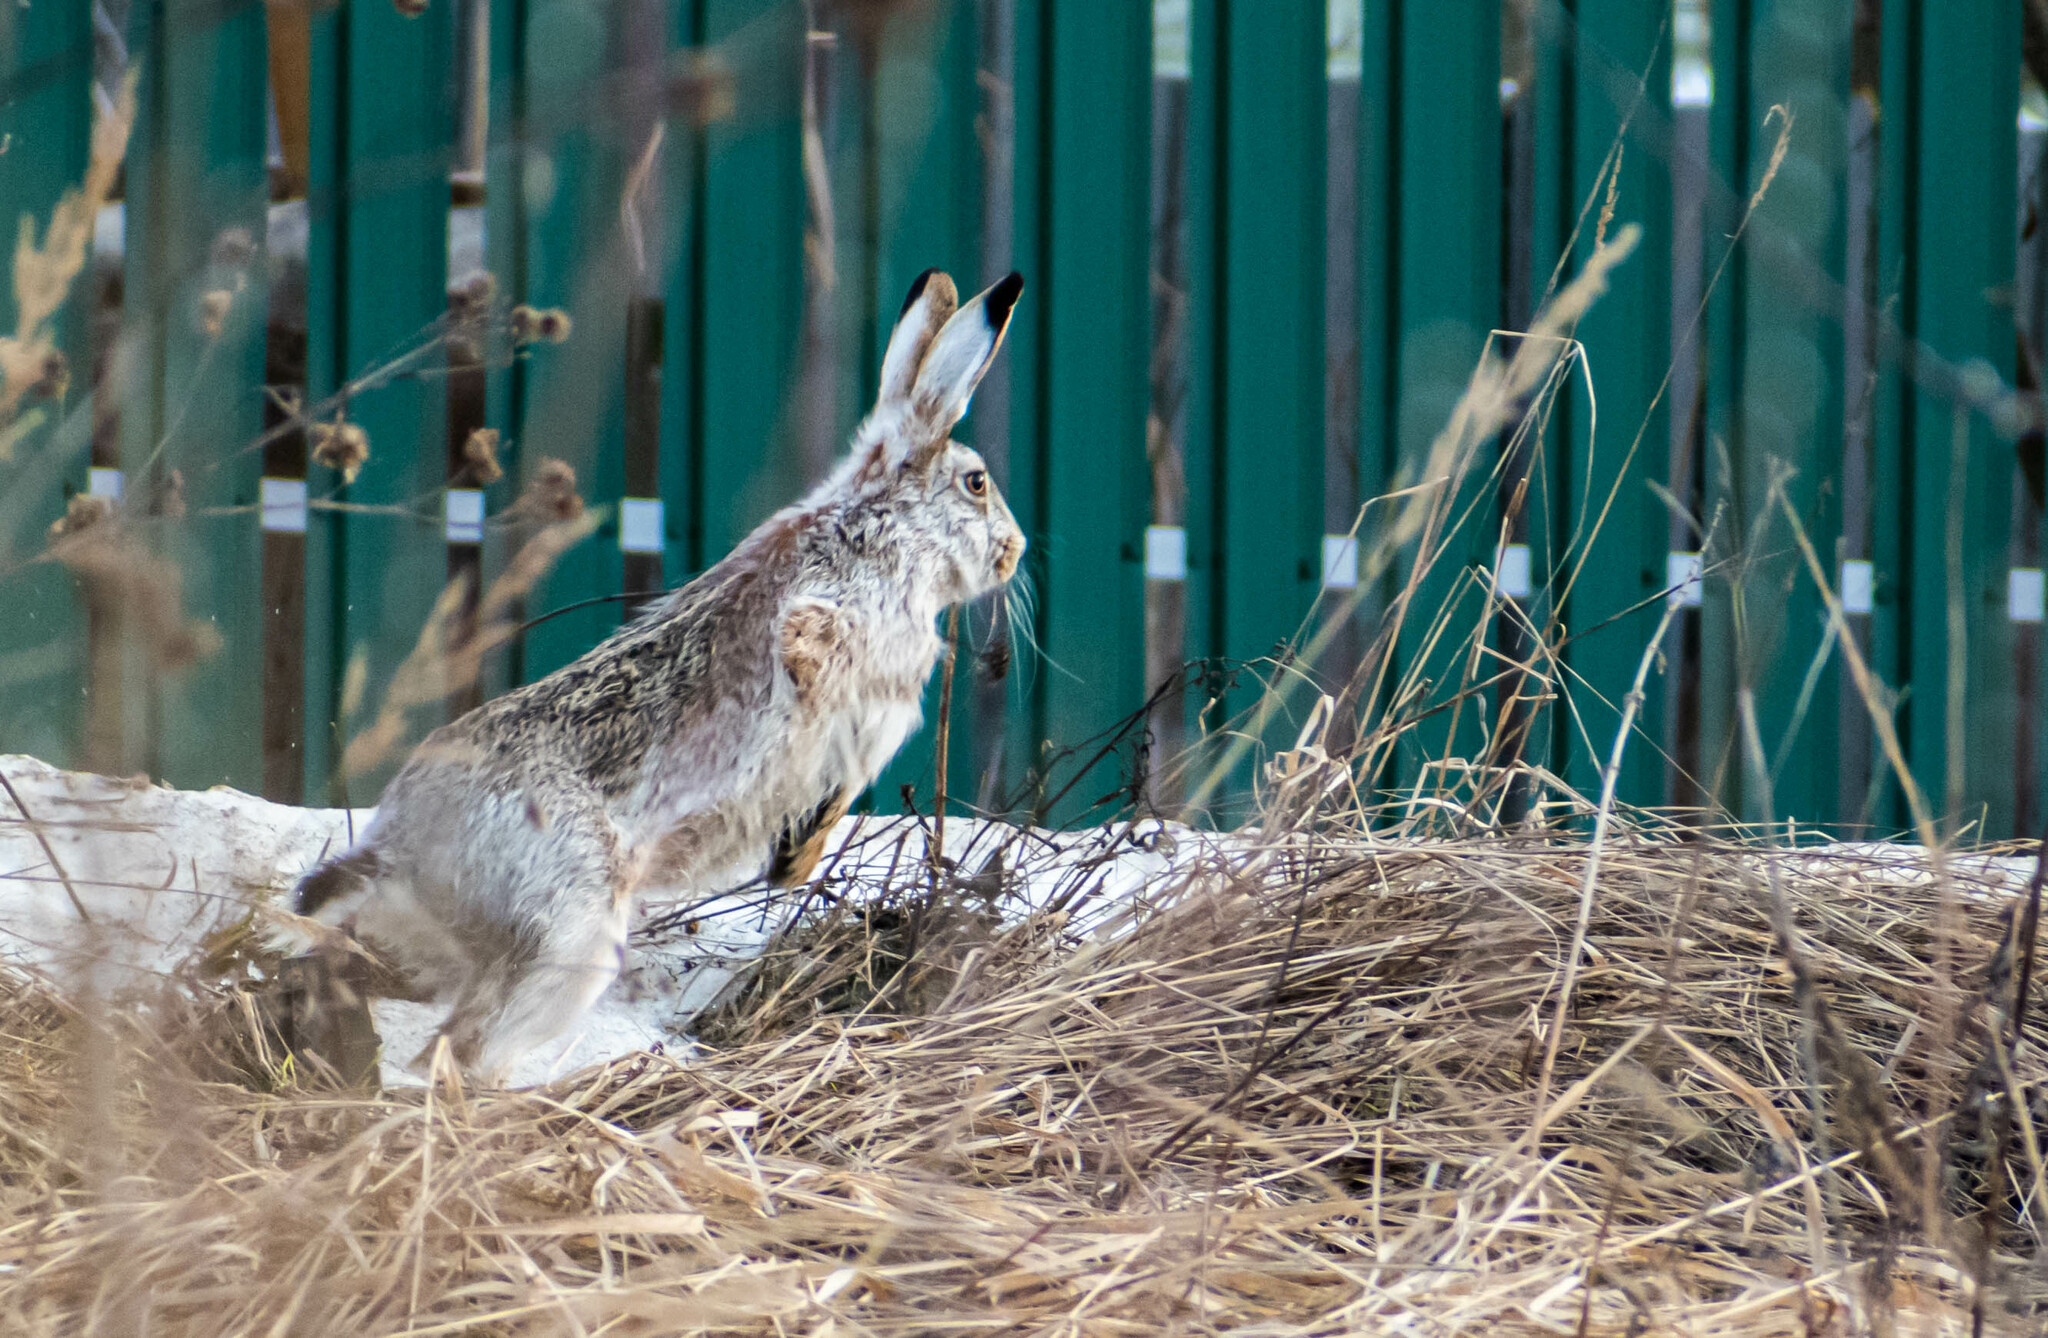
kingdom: Animalia
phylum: Chordata
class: Mammalia
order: Lagomorpha
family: Leporidae
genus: Lepus
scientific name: Lepus europaeus
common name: European hare
